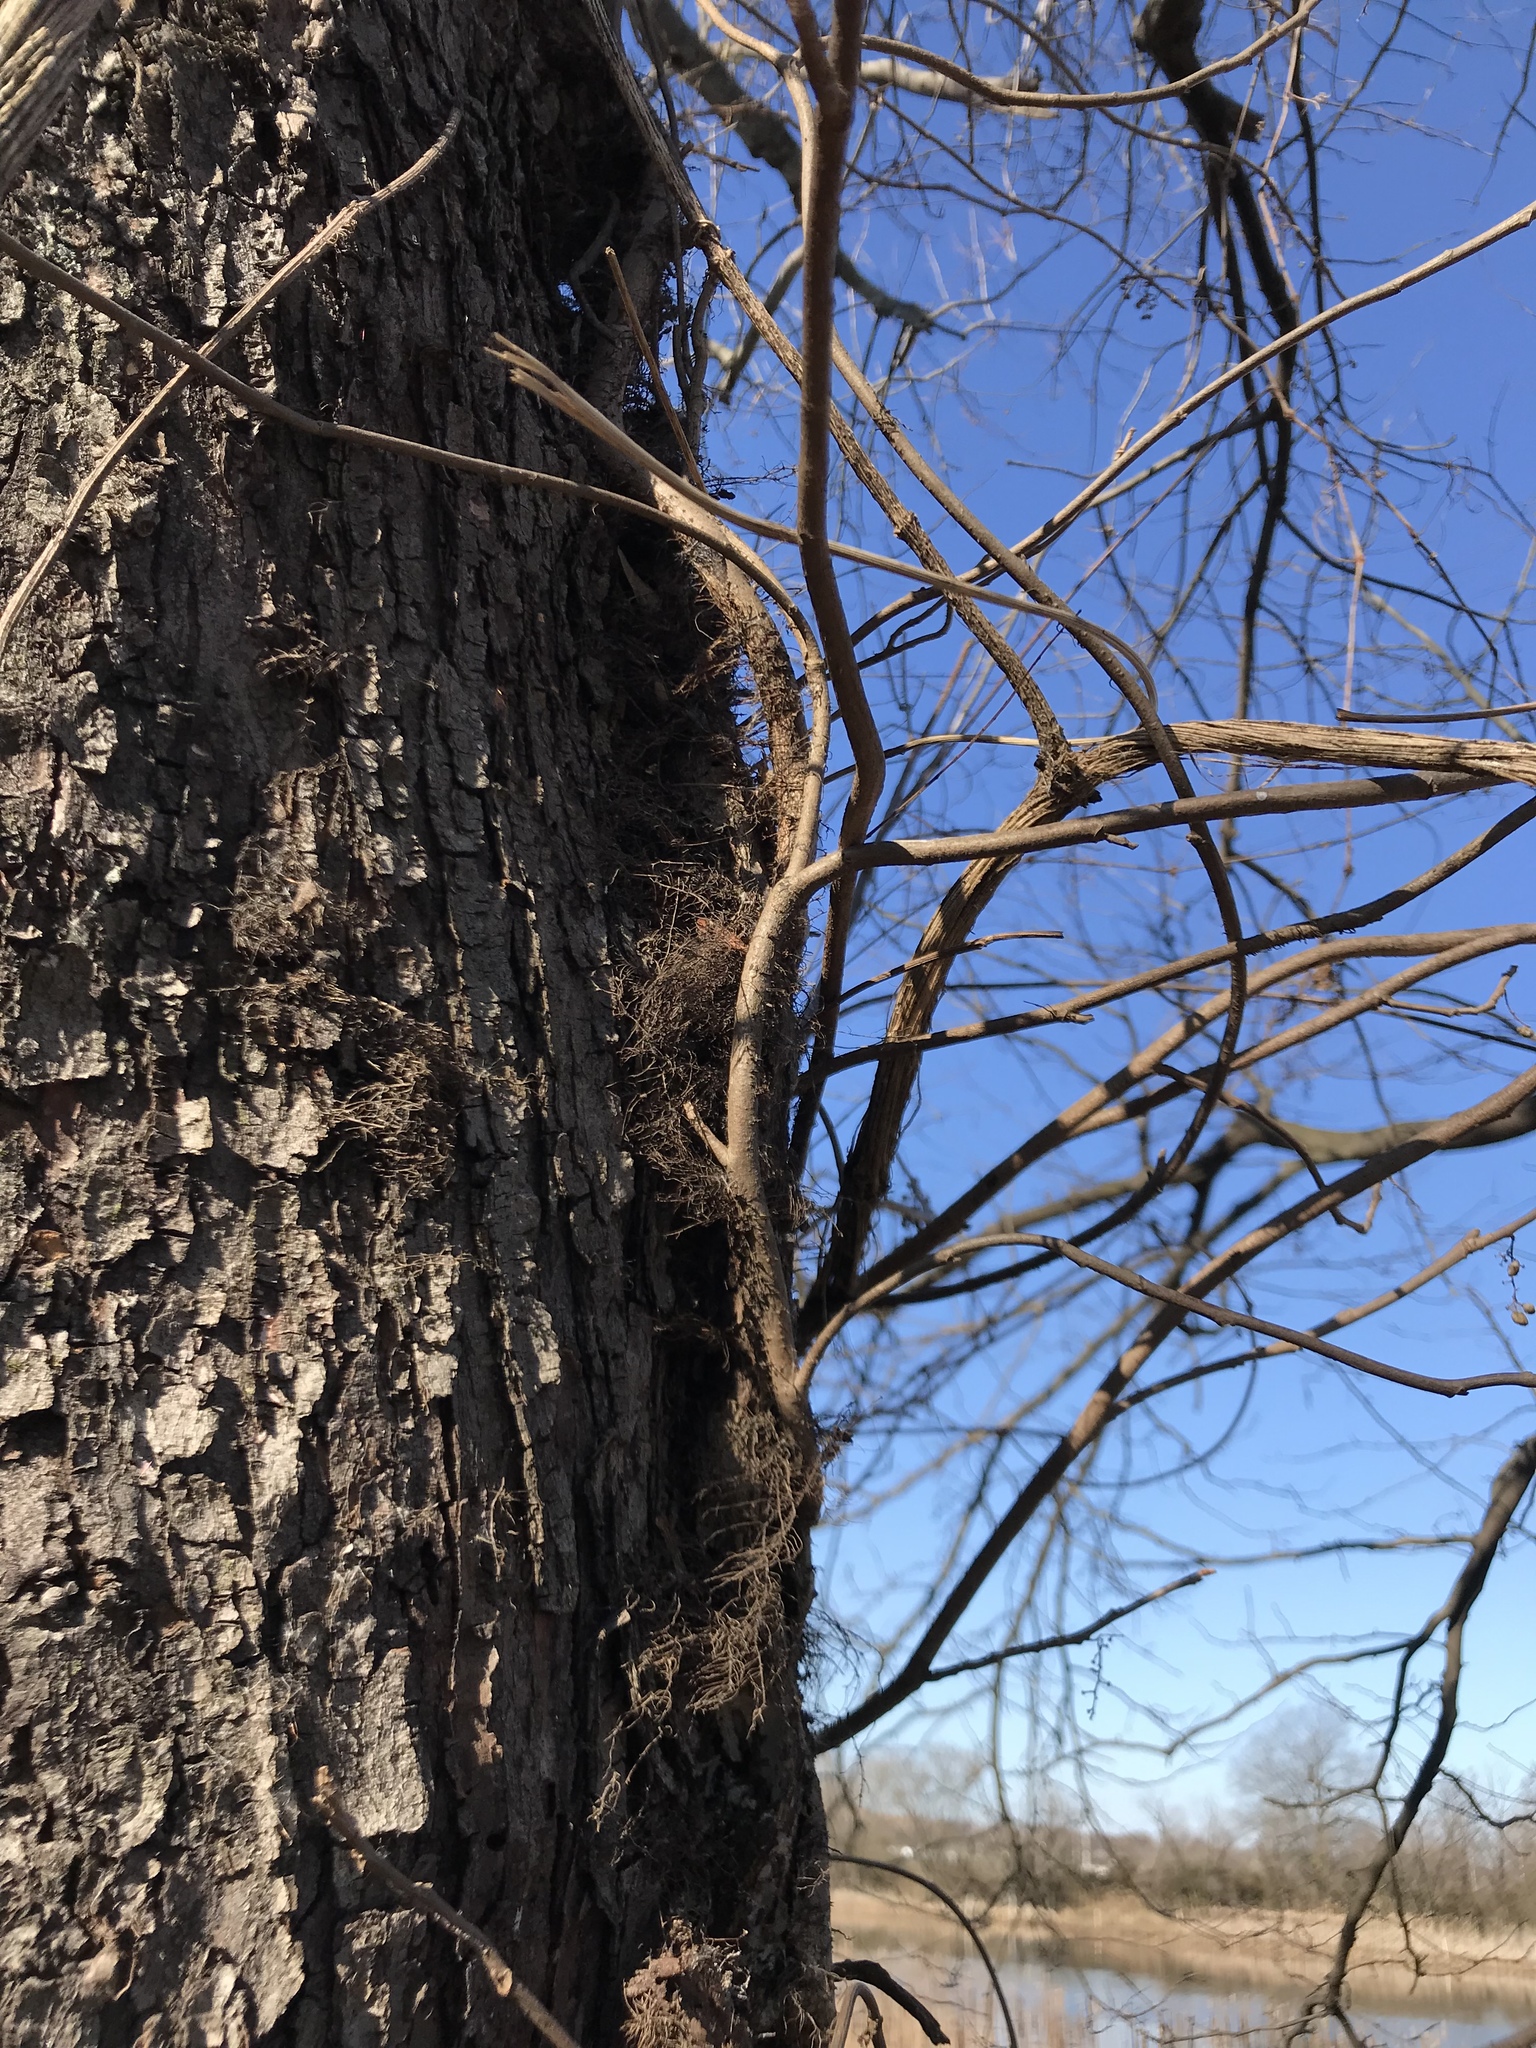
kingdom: Plantae
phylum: Tracheophyta
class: Magnoliopsida
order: Sapindales
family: Anacardiaceae
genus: Toxicodendron
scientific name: Toxicodendron radicans
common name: Poison ivy
